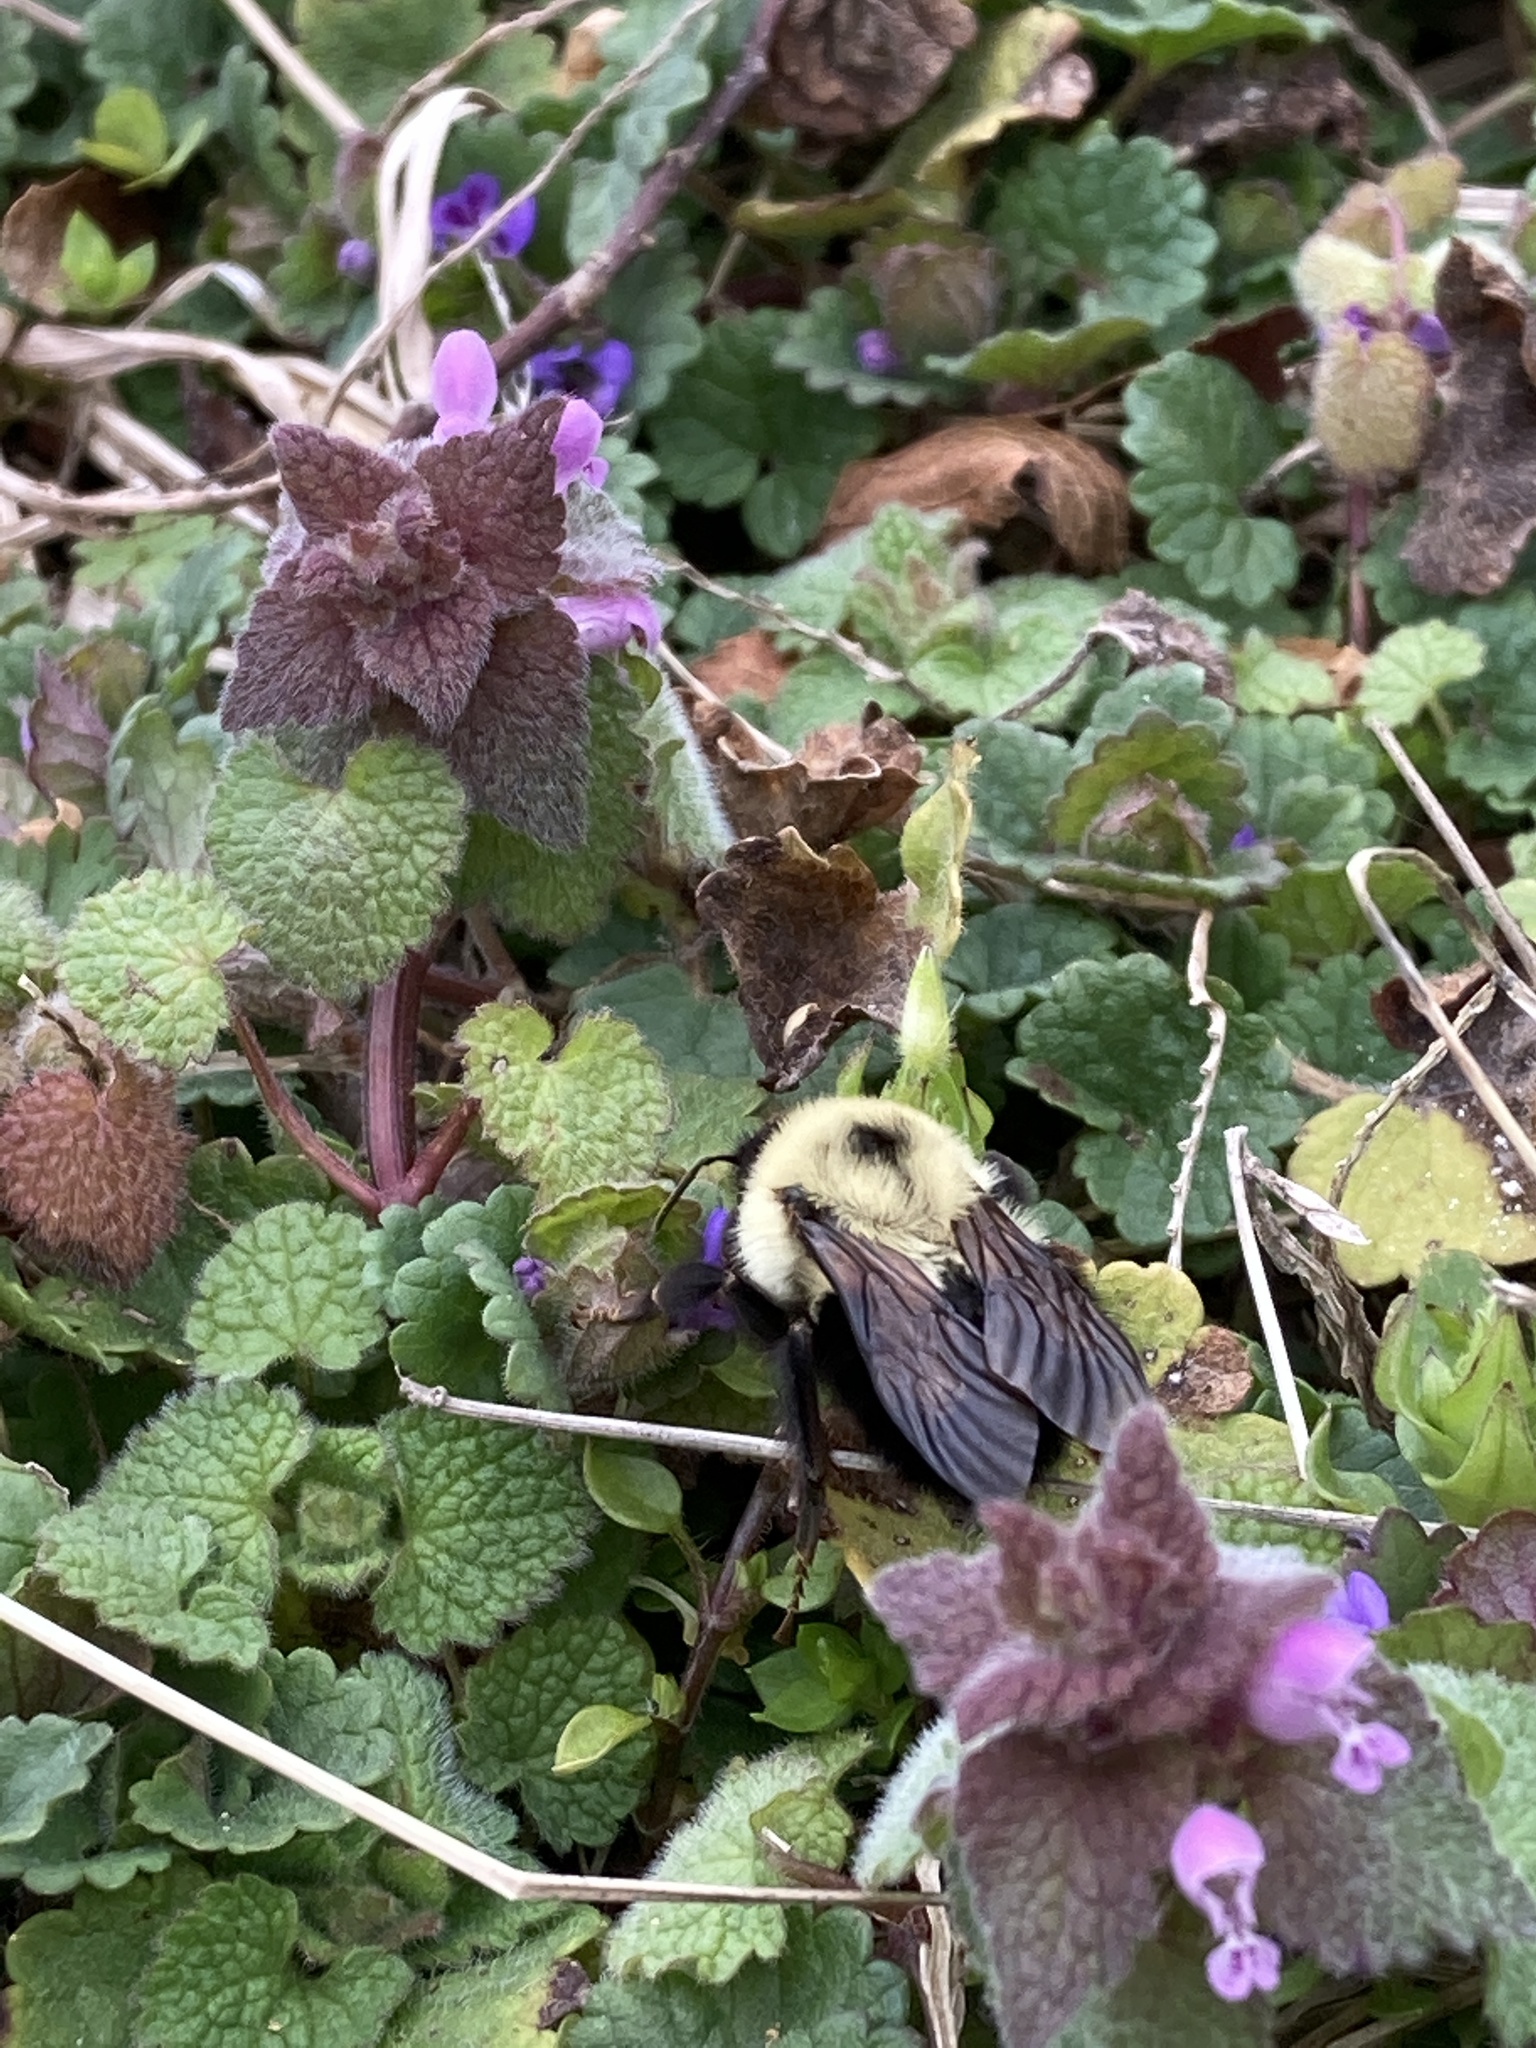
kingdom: Animalia
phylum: Arthropoda
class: Insecta
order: Hymenoptera
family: Apidae
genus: Bombus
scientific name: Bombus bimaculatus
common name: Two-spotted bumble bee
